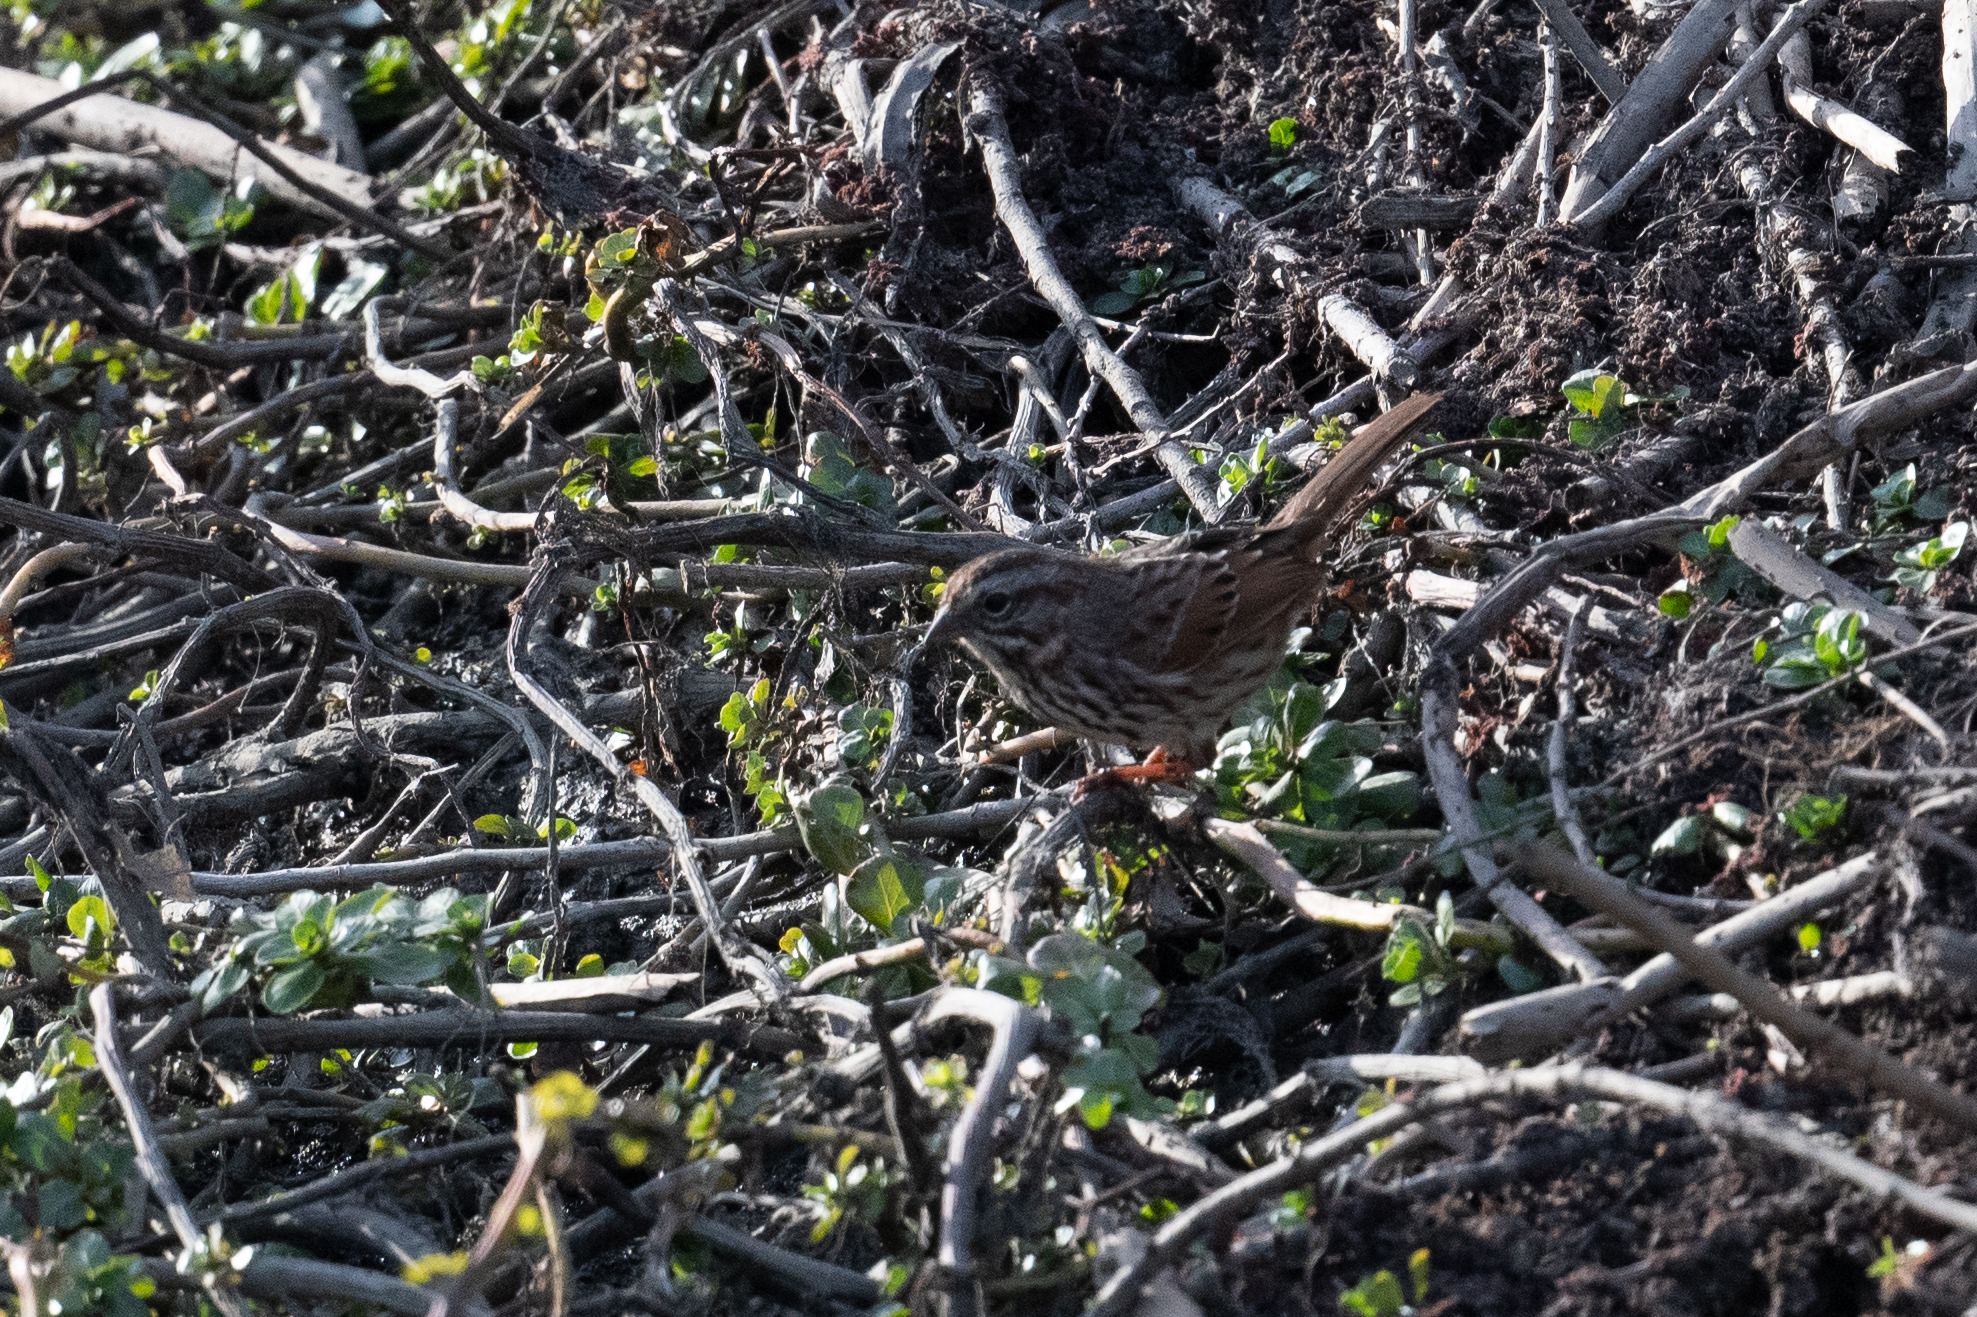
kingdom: Animalia
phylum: Chordata
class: Aves
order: Passeriformes
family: Passerellidae
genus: Melospiza
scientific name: Melospiza melodia
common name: Song sparrow
